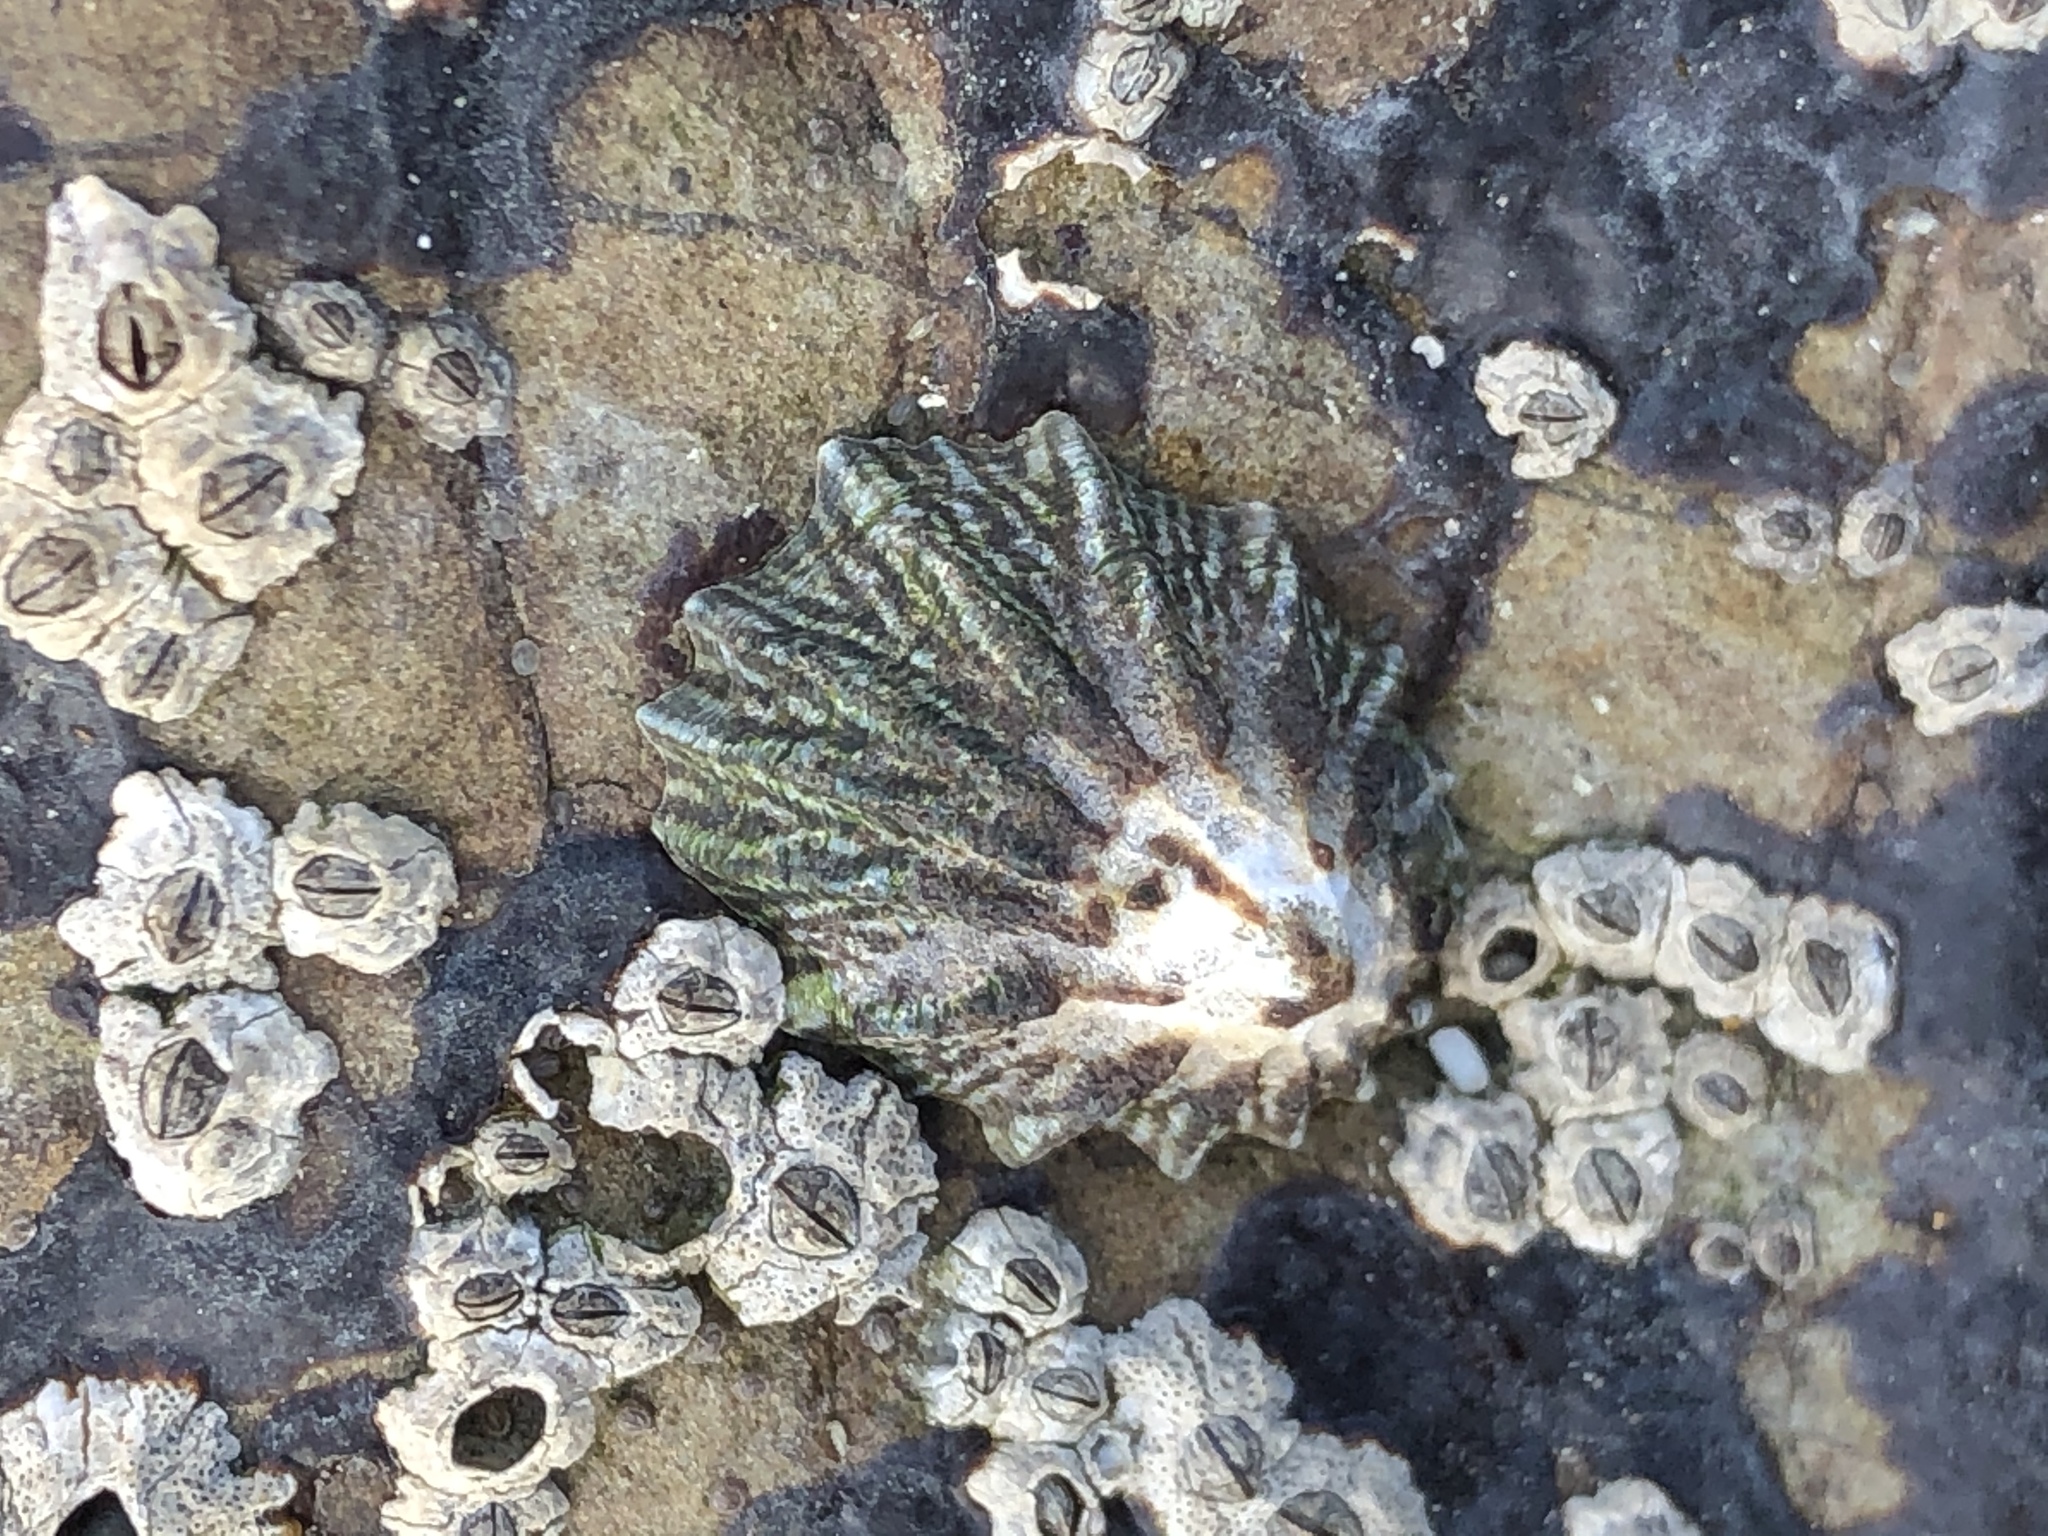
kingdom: Animalia
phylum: Mollusca
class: Gastropoda
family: Lottiidae
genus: Lottia
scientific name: Lottia scabra
